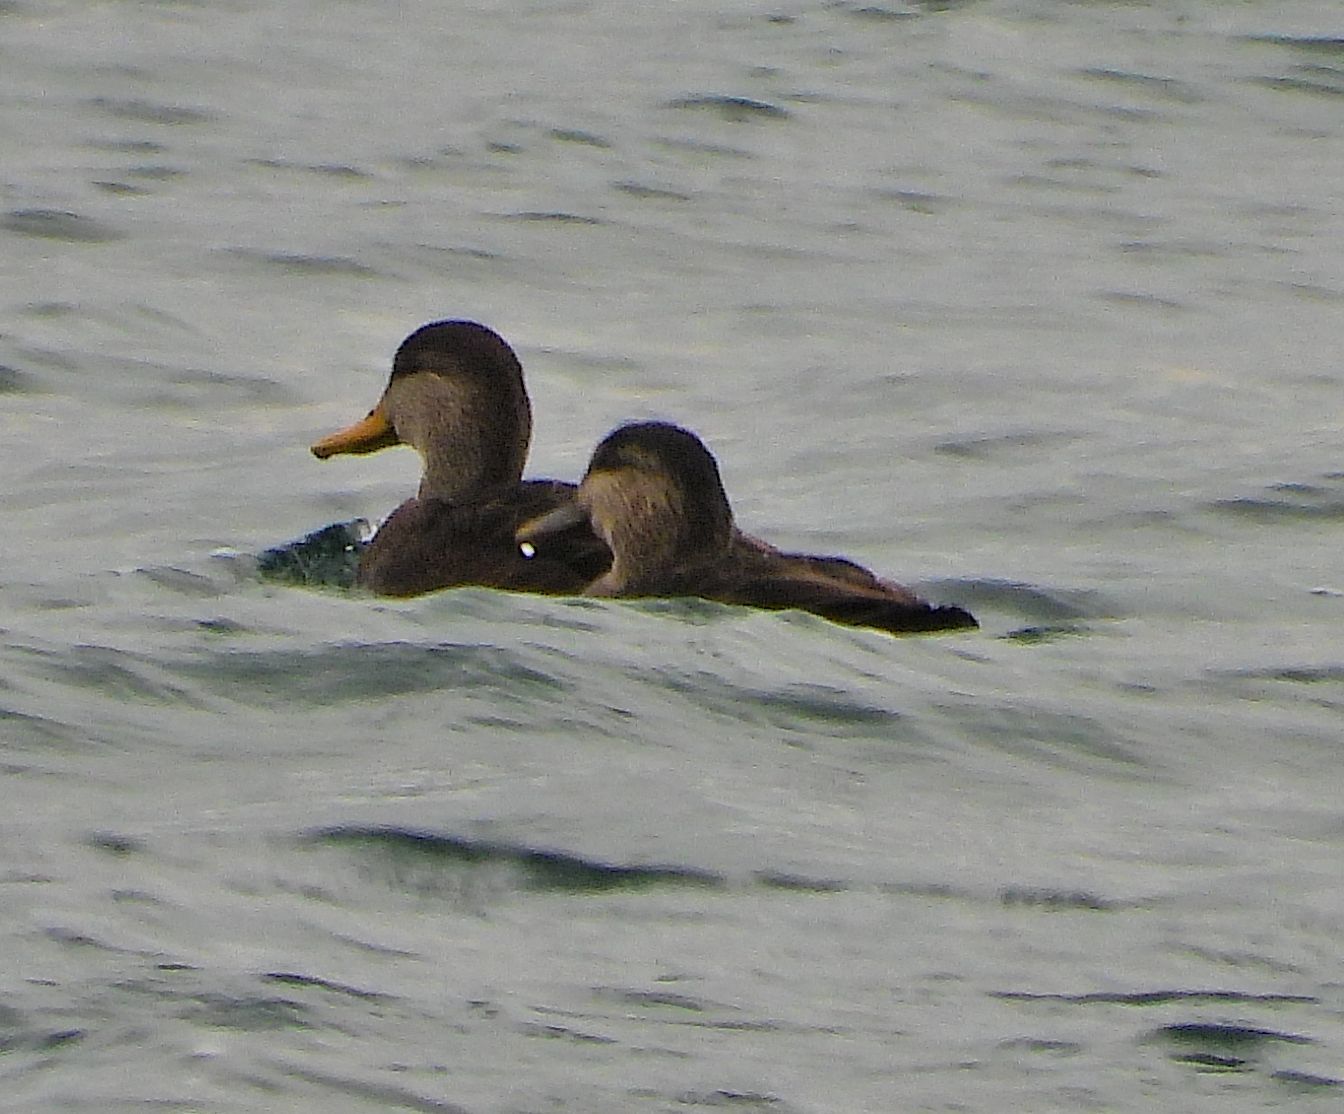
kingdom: Animalia
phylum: Chordata
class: Aves
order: Anseriformes
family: Anatidae
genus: Anas
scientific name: Anas rubripes
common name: American black duck
